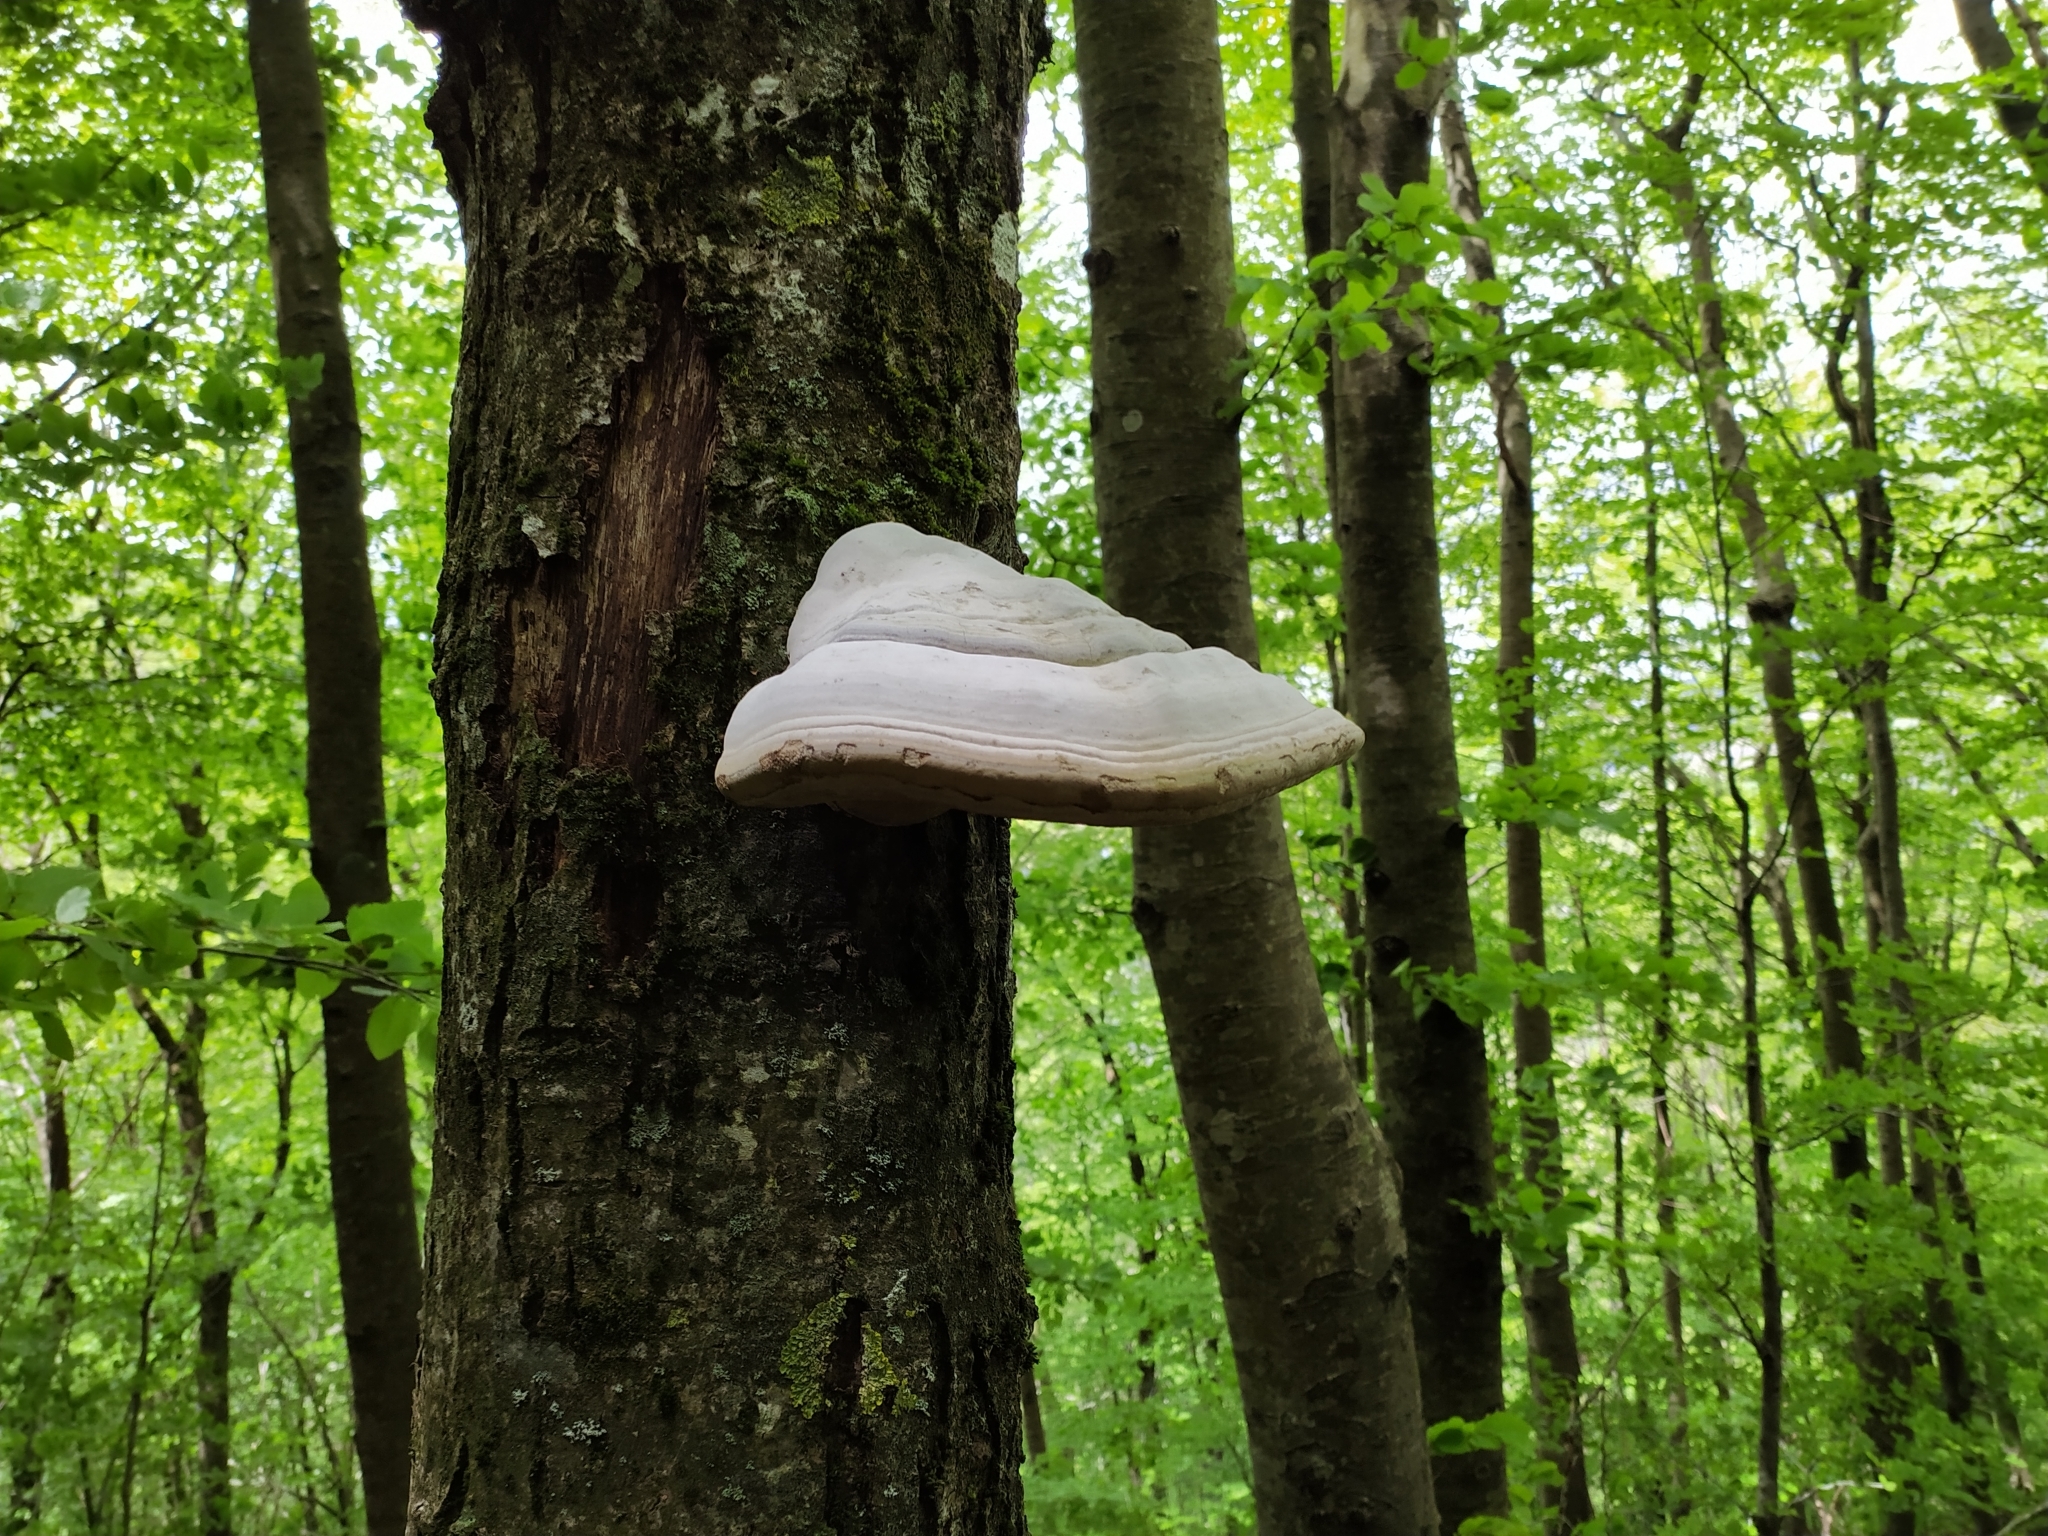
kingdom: Fungi
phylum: Basidiomycota
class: Agaricomycetes
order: Polyporales
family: Polyporaceae
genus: Fomes
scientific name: Fomes fomentarius
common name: Hoof fungus
